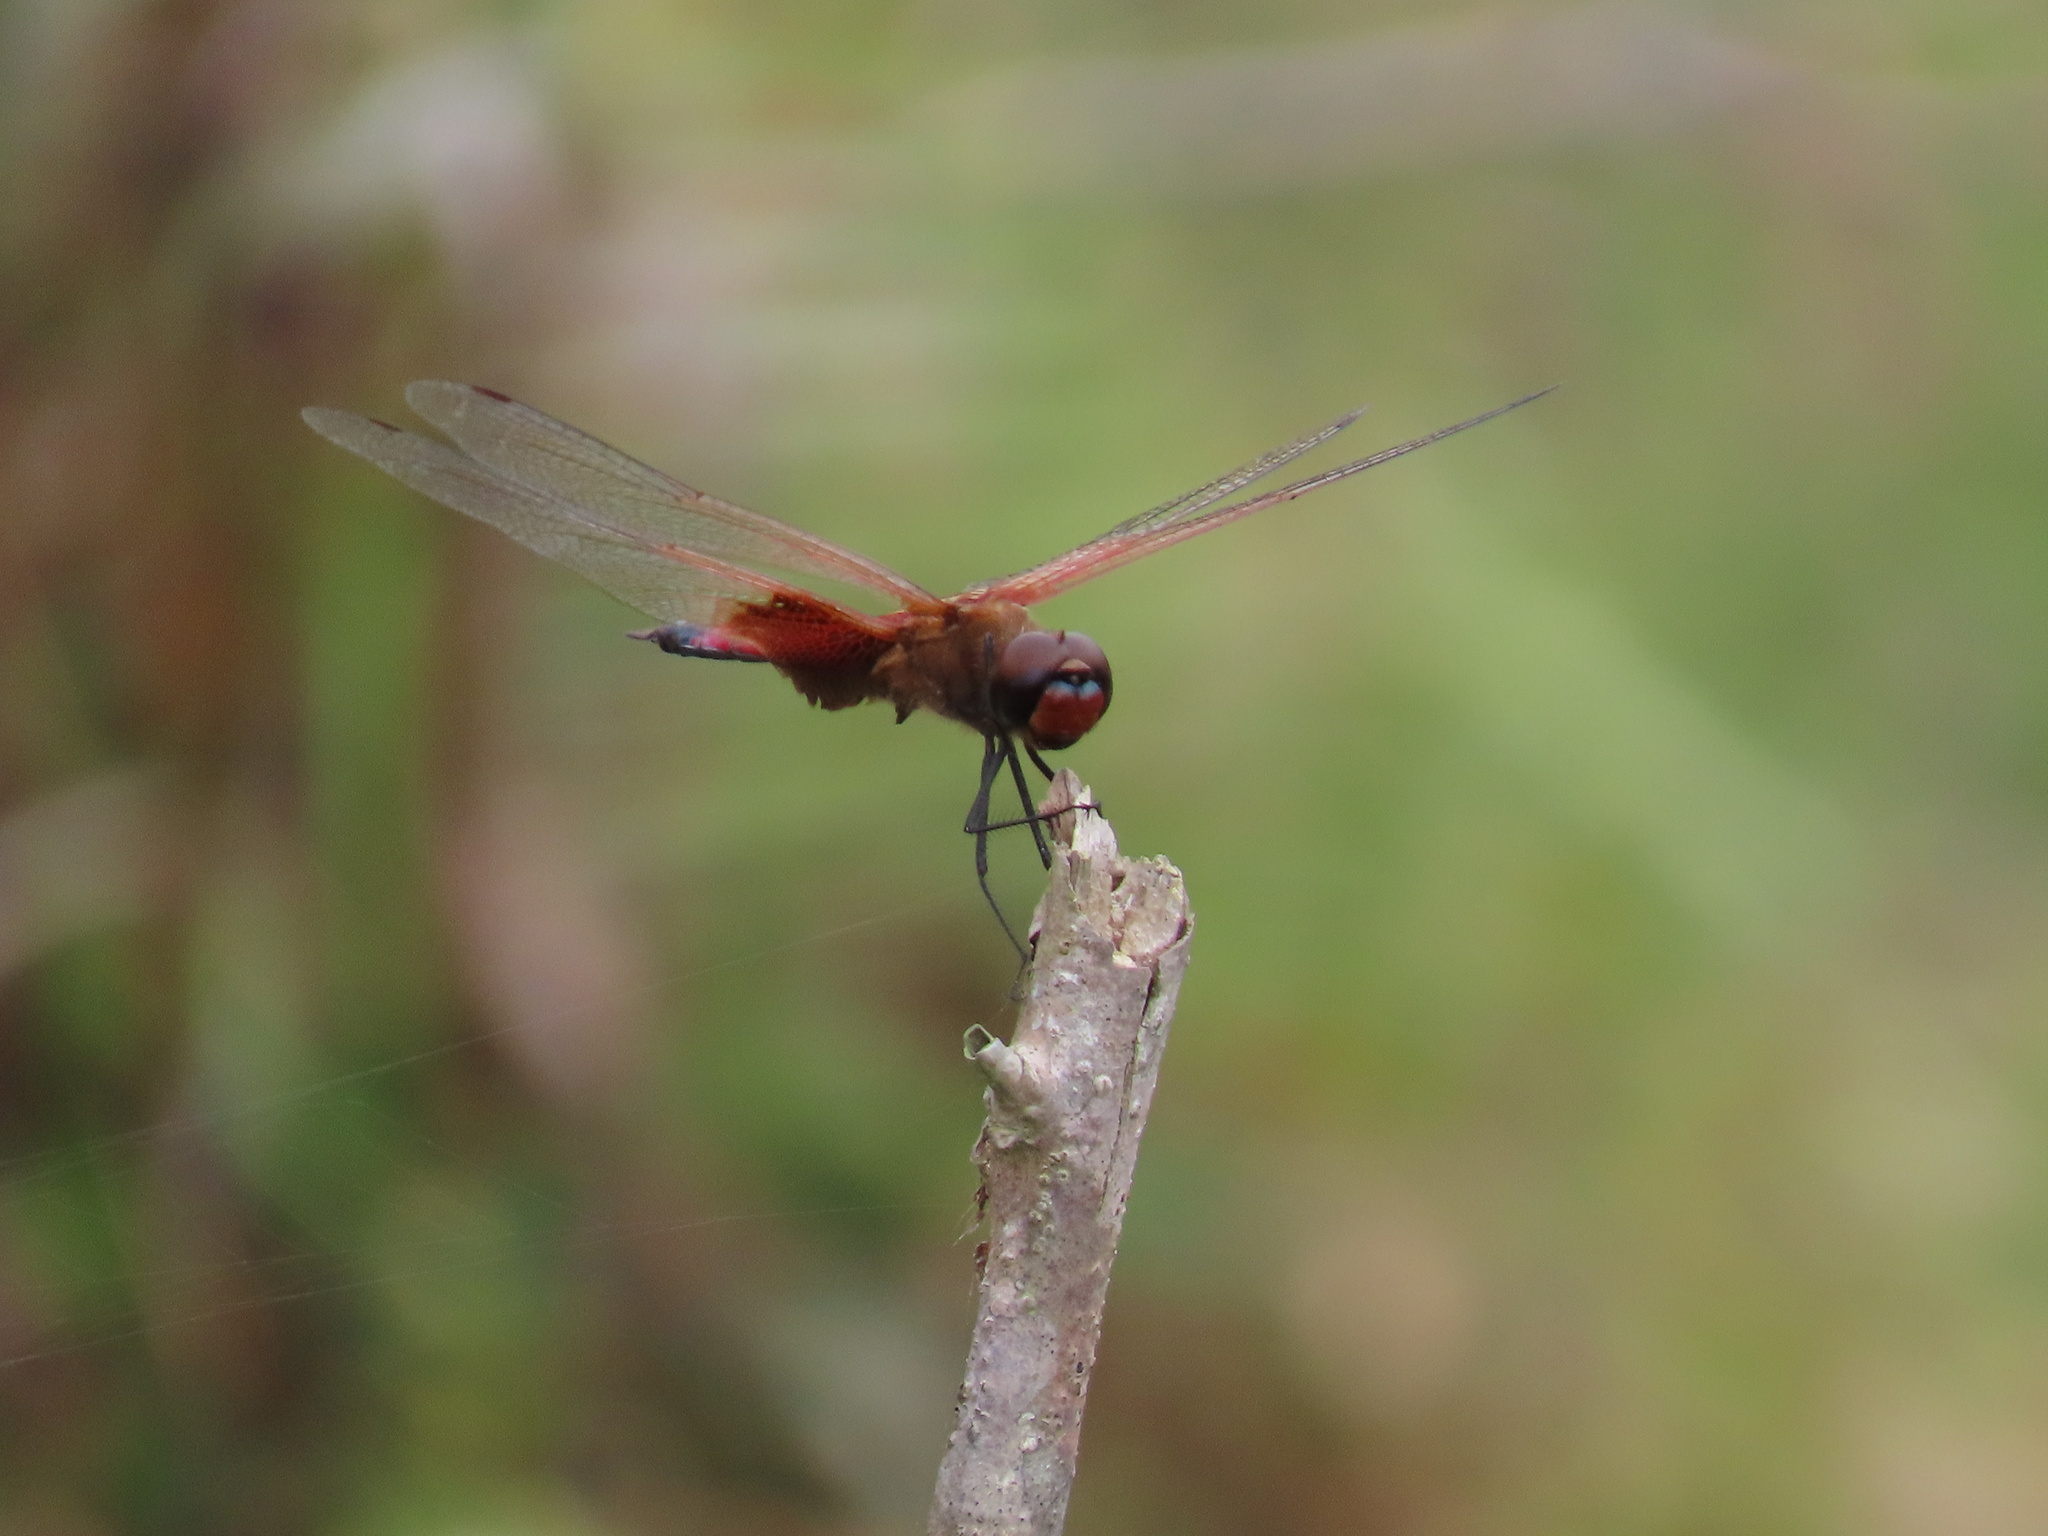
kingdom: Animalia
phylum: Arthropoda
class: Insecta
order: Odonata
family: Libellulidae
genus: Tramea
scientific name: Tramea virginia
